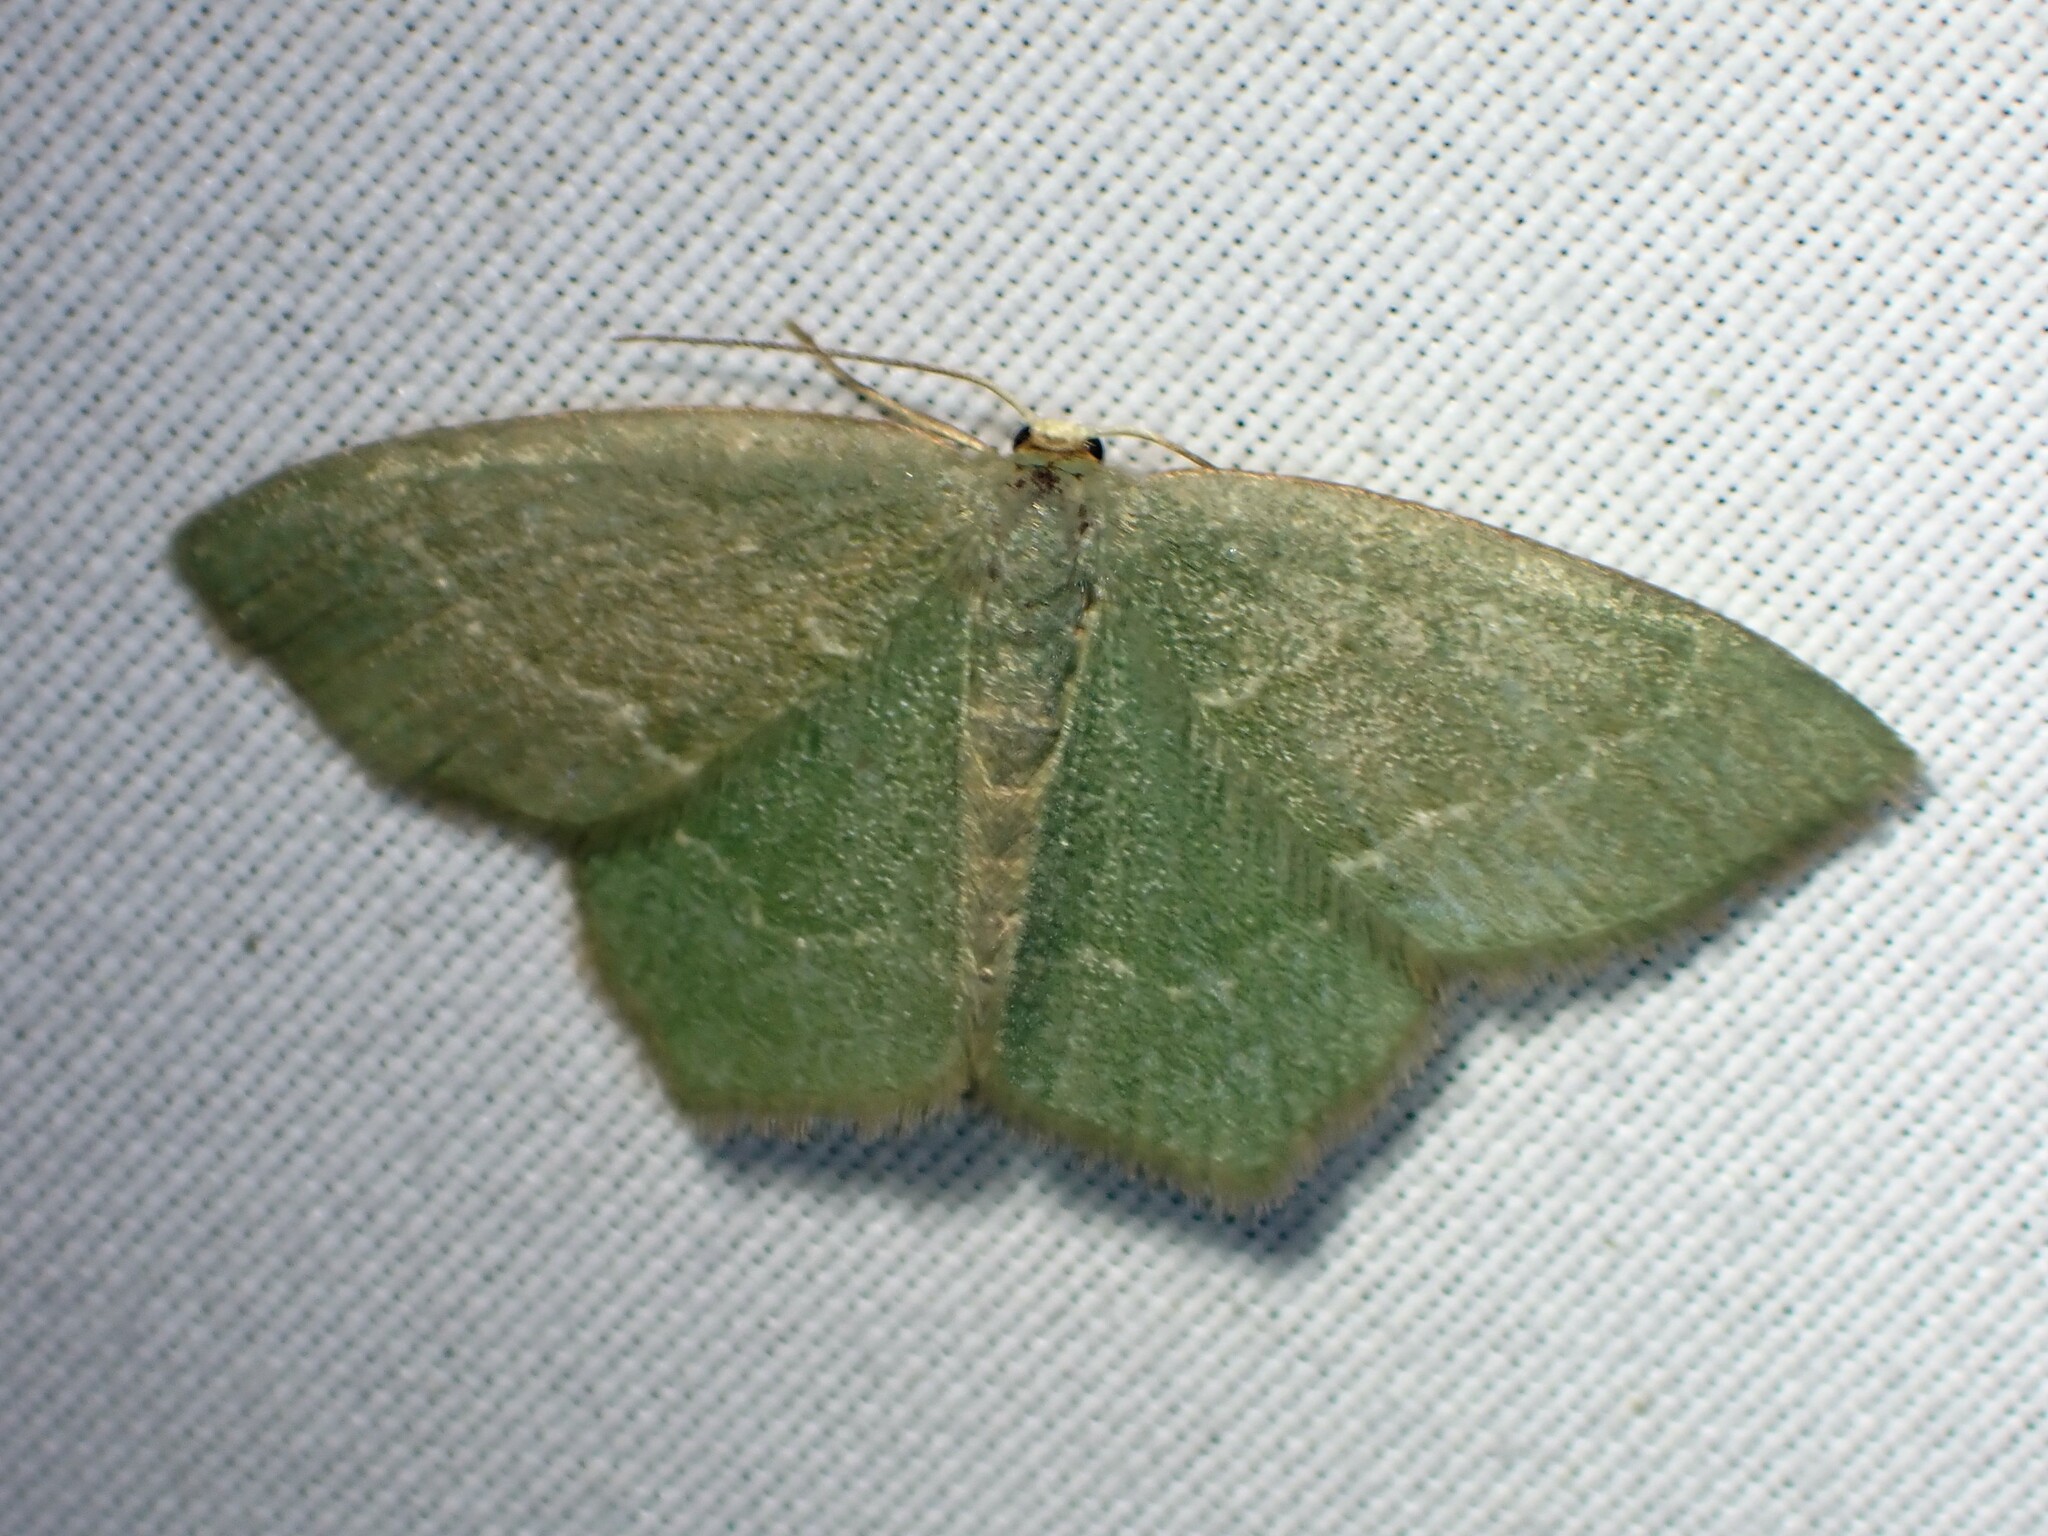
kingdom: Animalia
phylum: Arthropoda
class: Insecta
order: Lepidoptera
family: Geometridae
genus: Thalera
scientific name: Thalera pistasciaria
